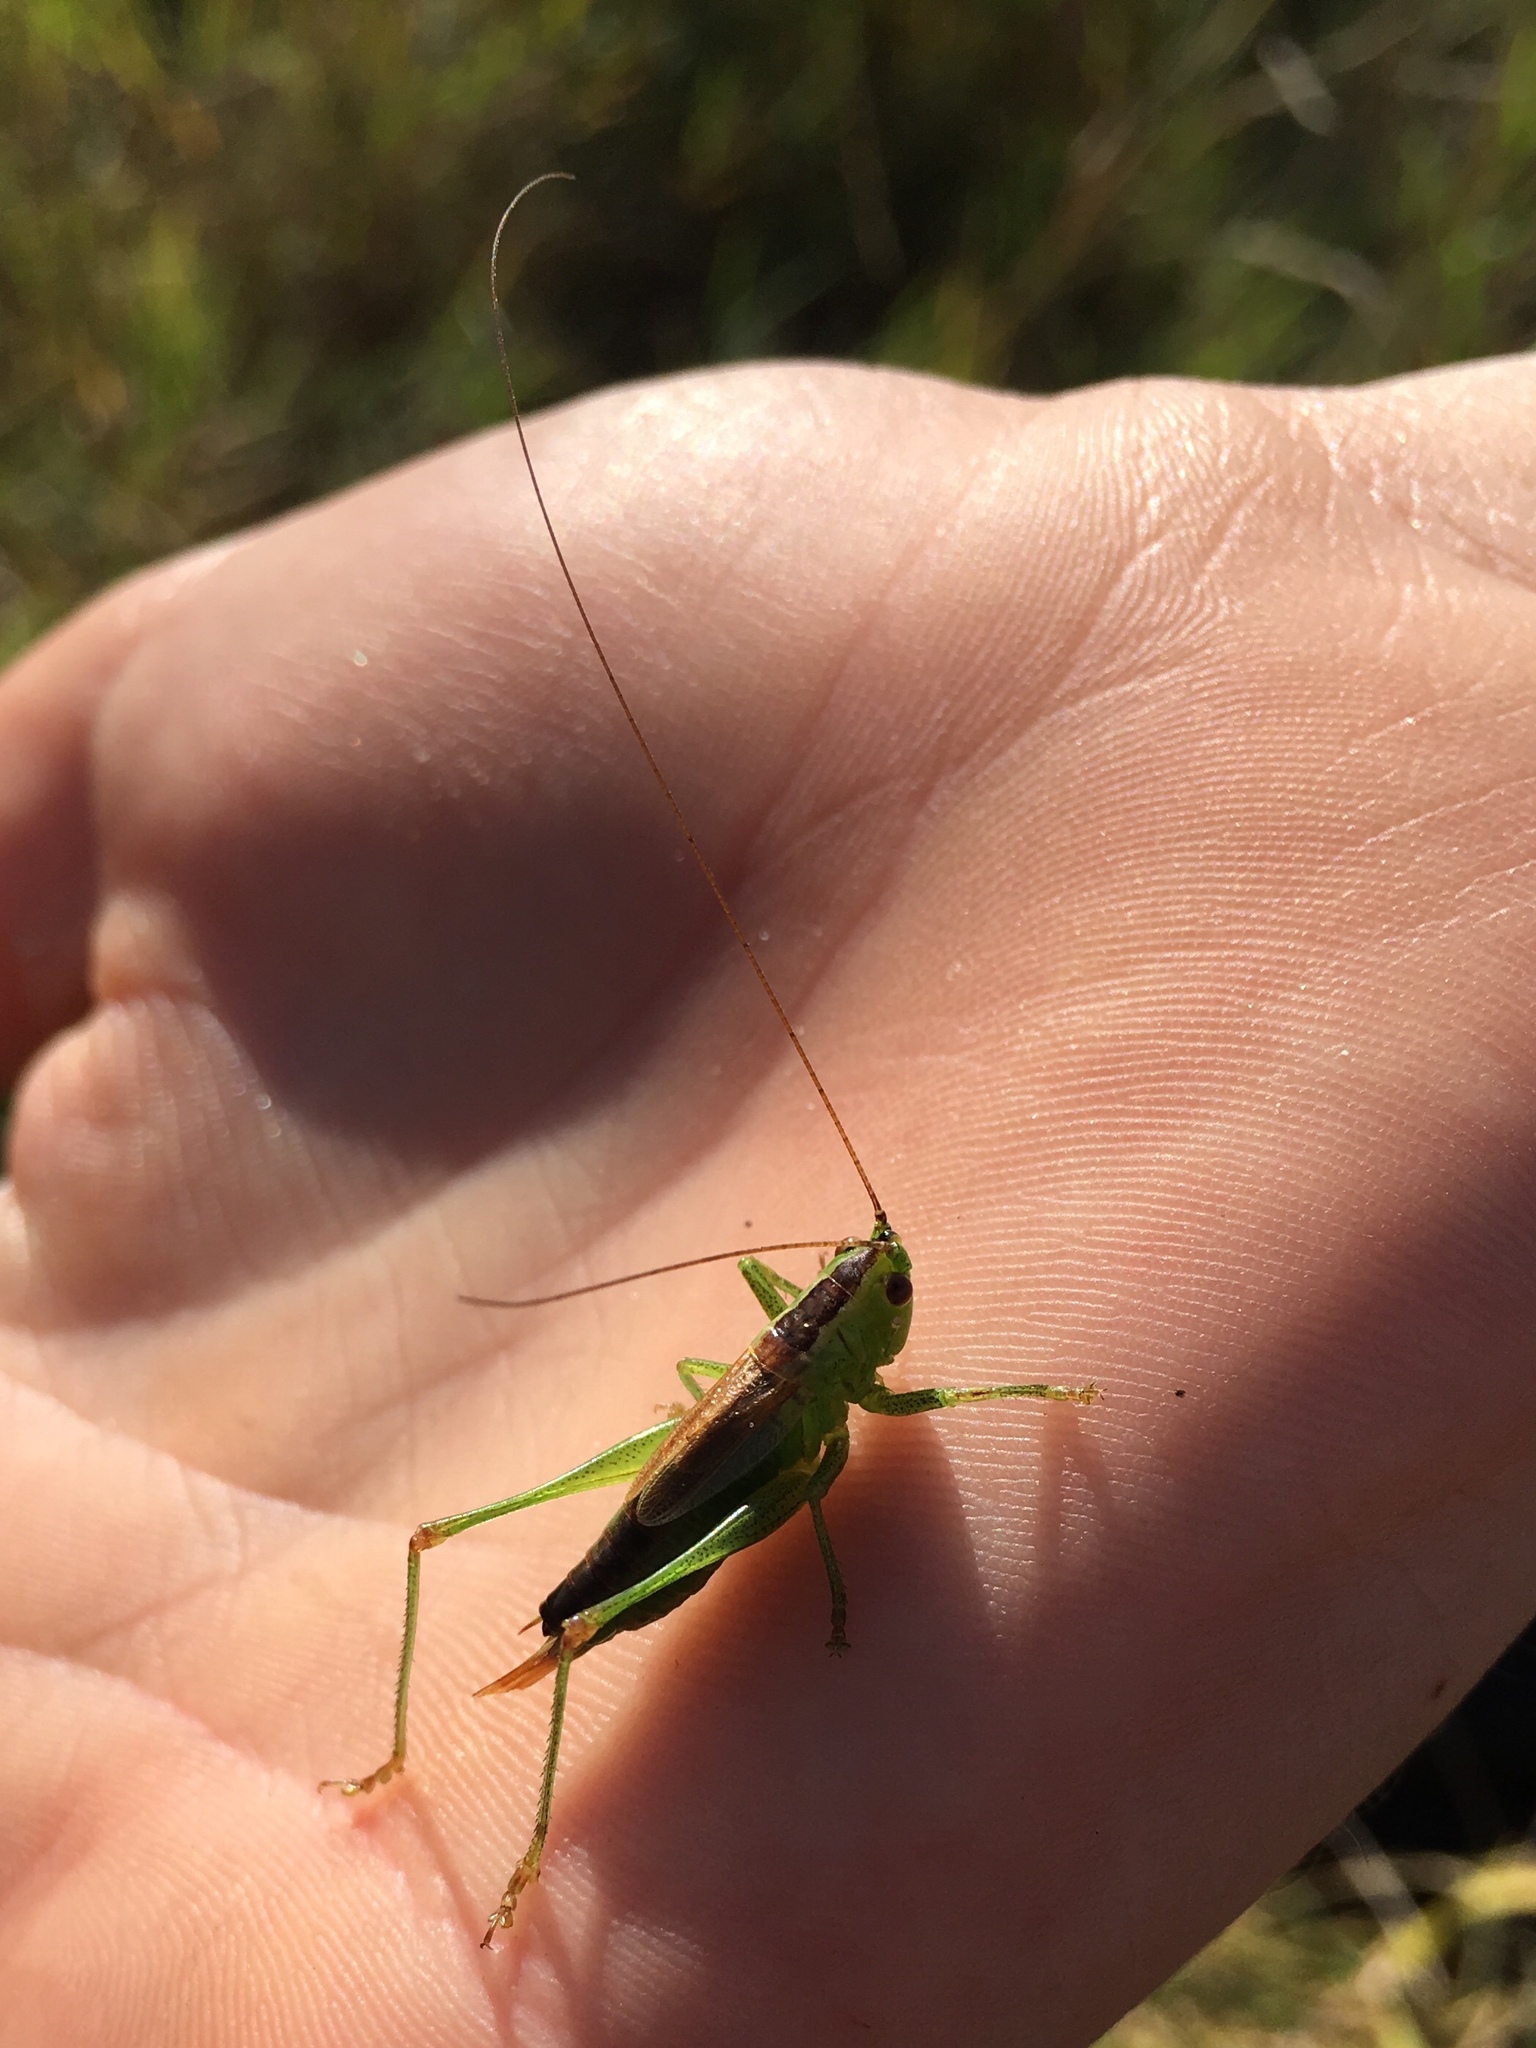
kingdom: Animalia
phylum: Arthropoda
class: Insecta
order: Orthoptera
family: Tettigoniidae
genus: Conocephalus
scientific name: Conocephalus dorsalis
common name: Short-winged conehead
